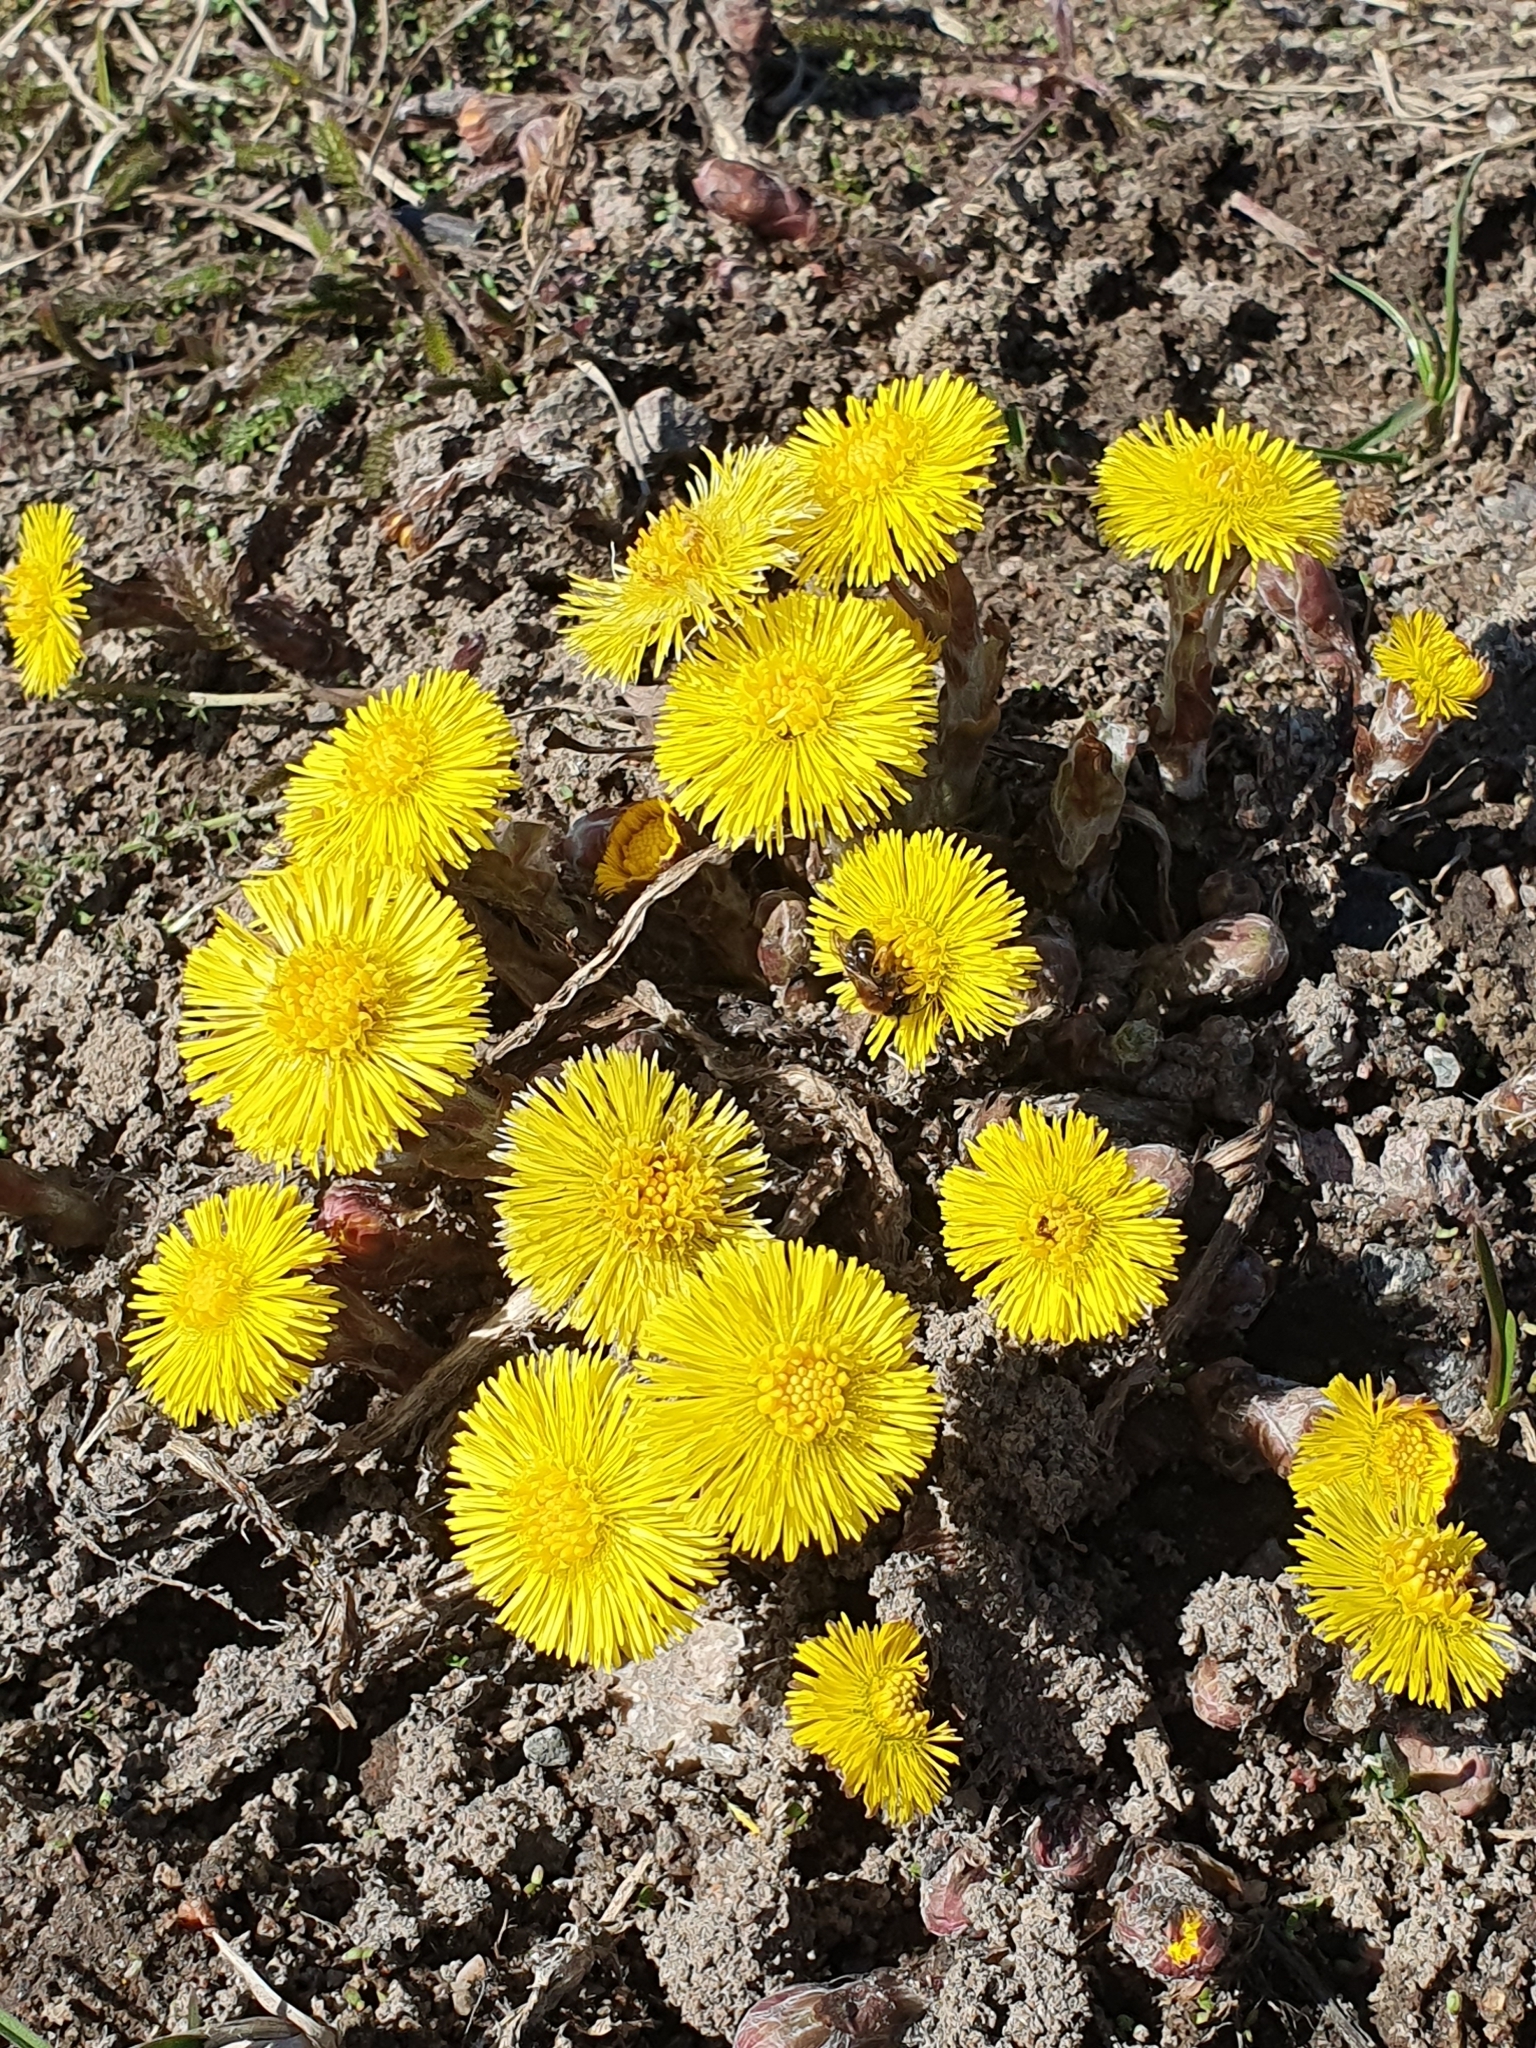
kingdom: Plantae
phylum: Tracheophyta
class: Magnoliopsida
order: Asterales
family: Asteraceae
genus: Tussilago
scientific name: Tussilago farfara
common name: Coltsfoot
